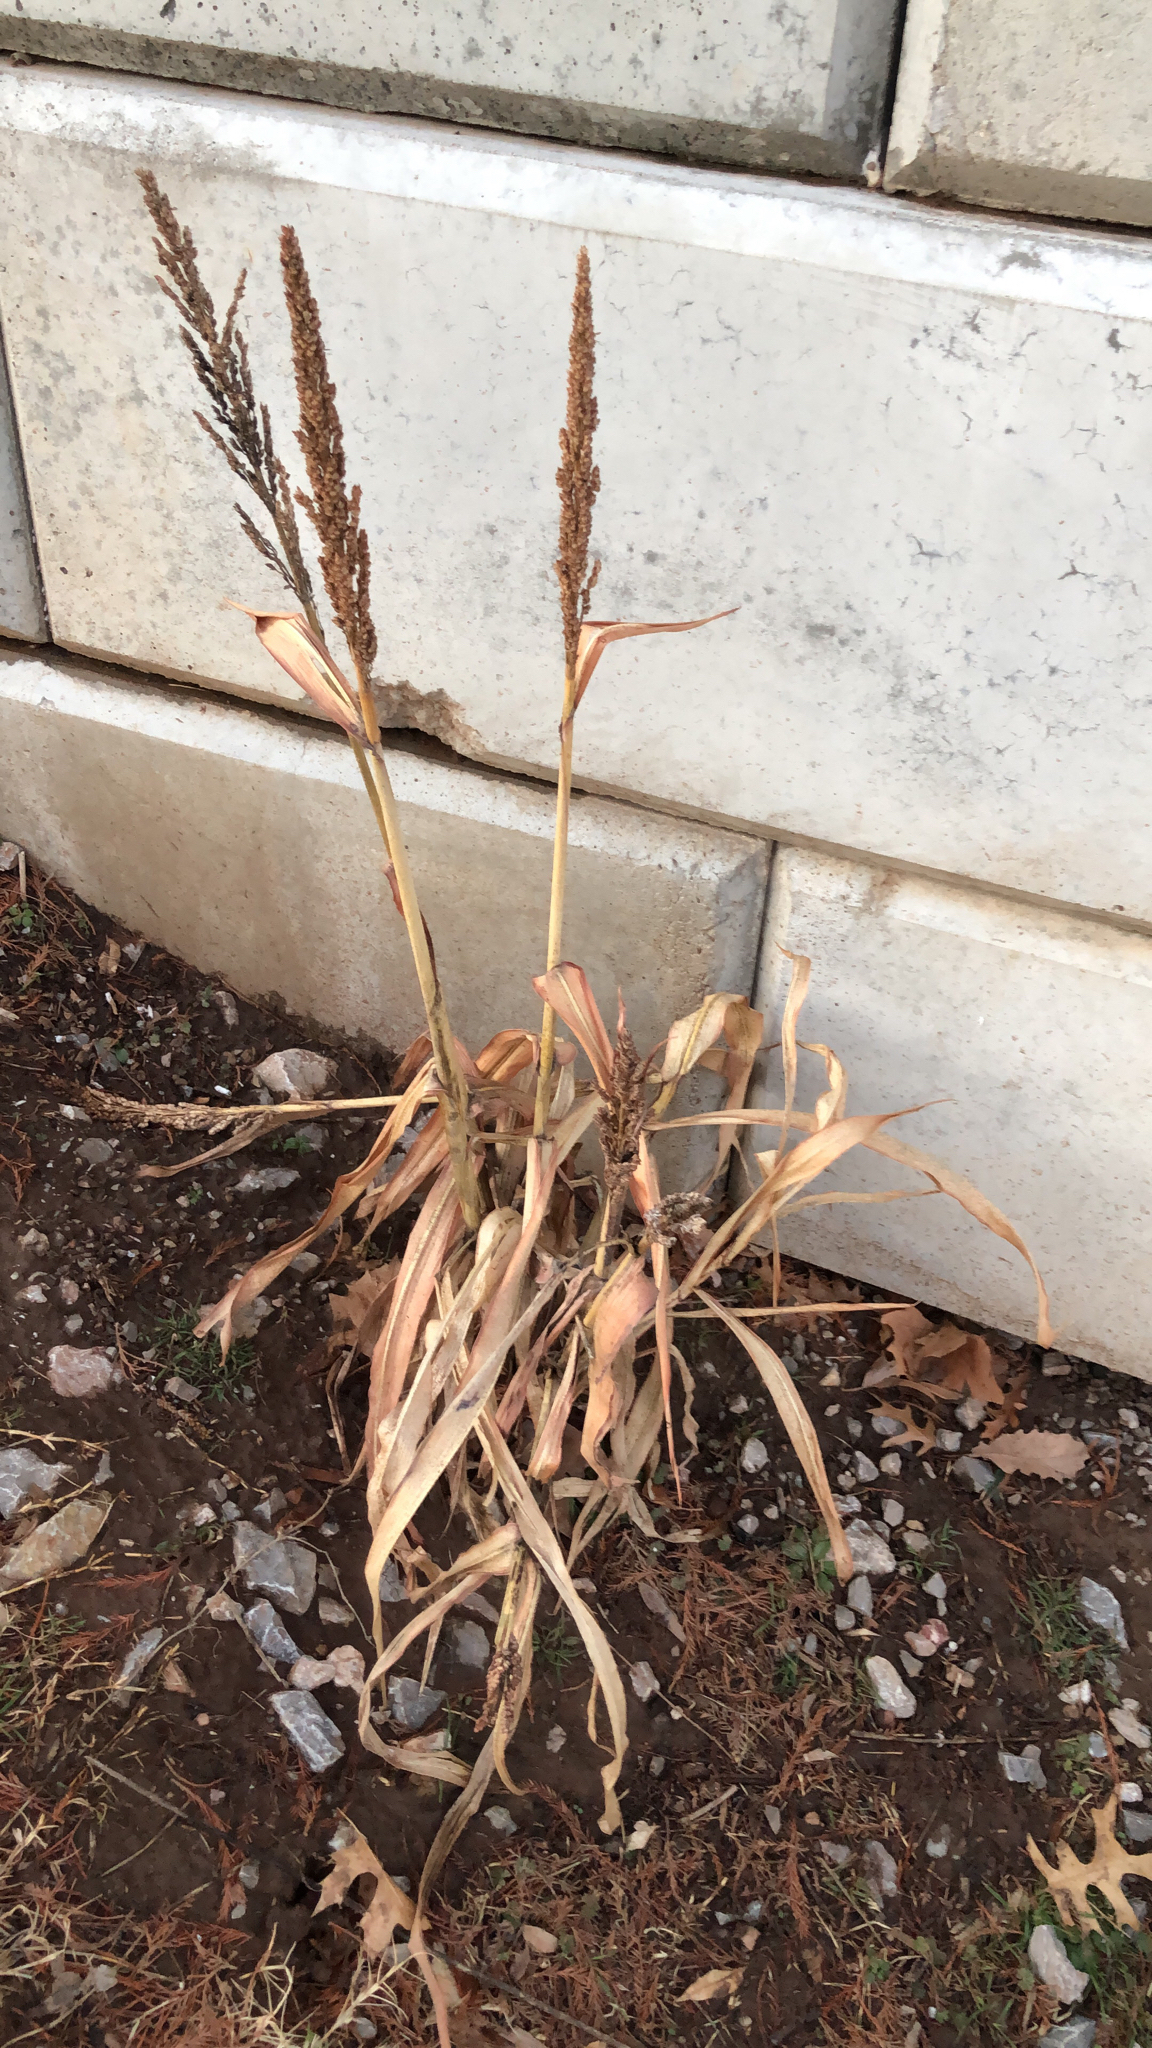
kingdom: Plantae
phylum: Tracheophyta
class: Liliopsida
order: Poales
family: Poaceae
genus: Sorghum
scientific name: Sorghum bicolor
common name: Sorghum
